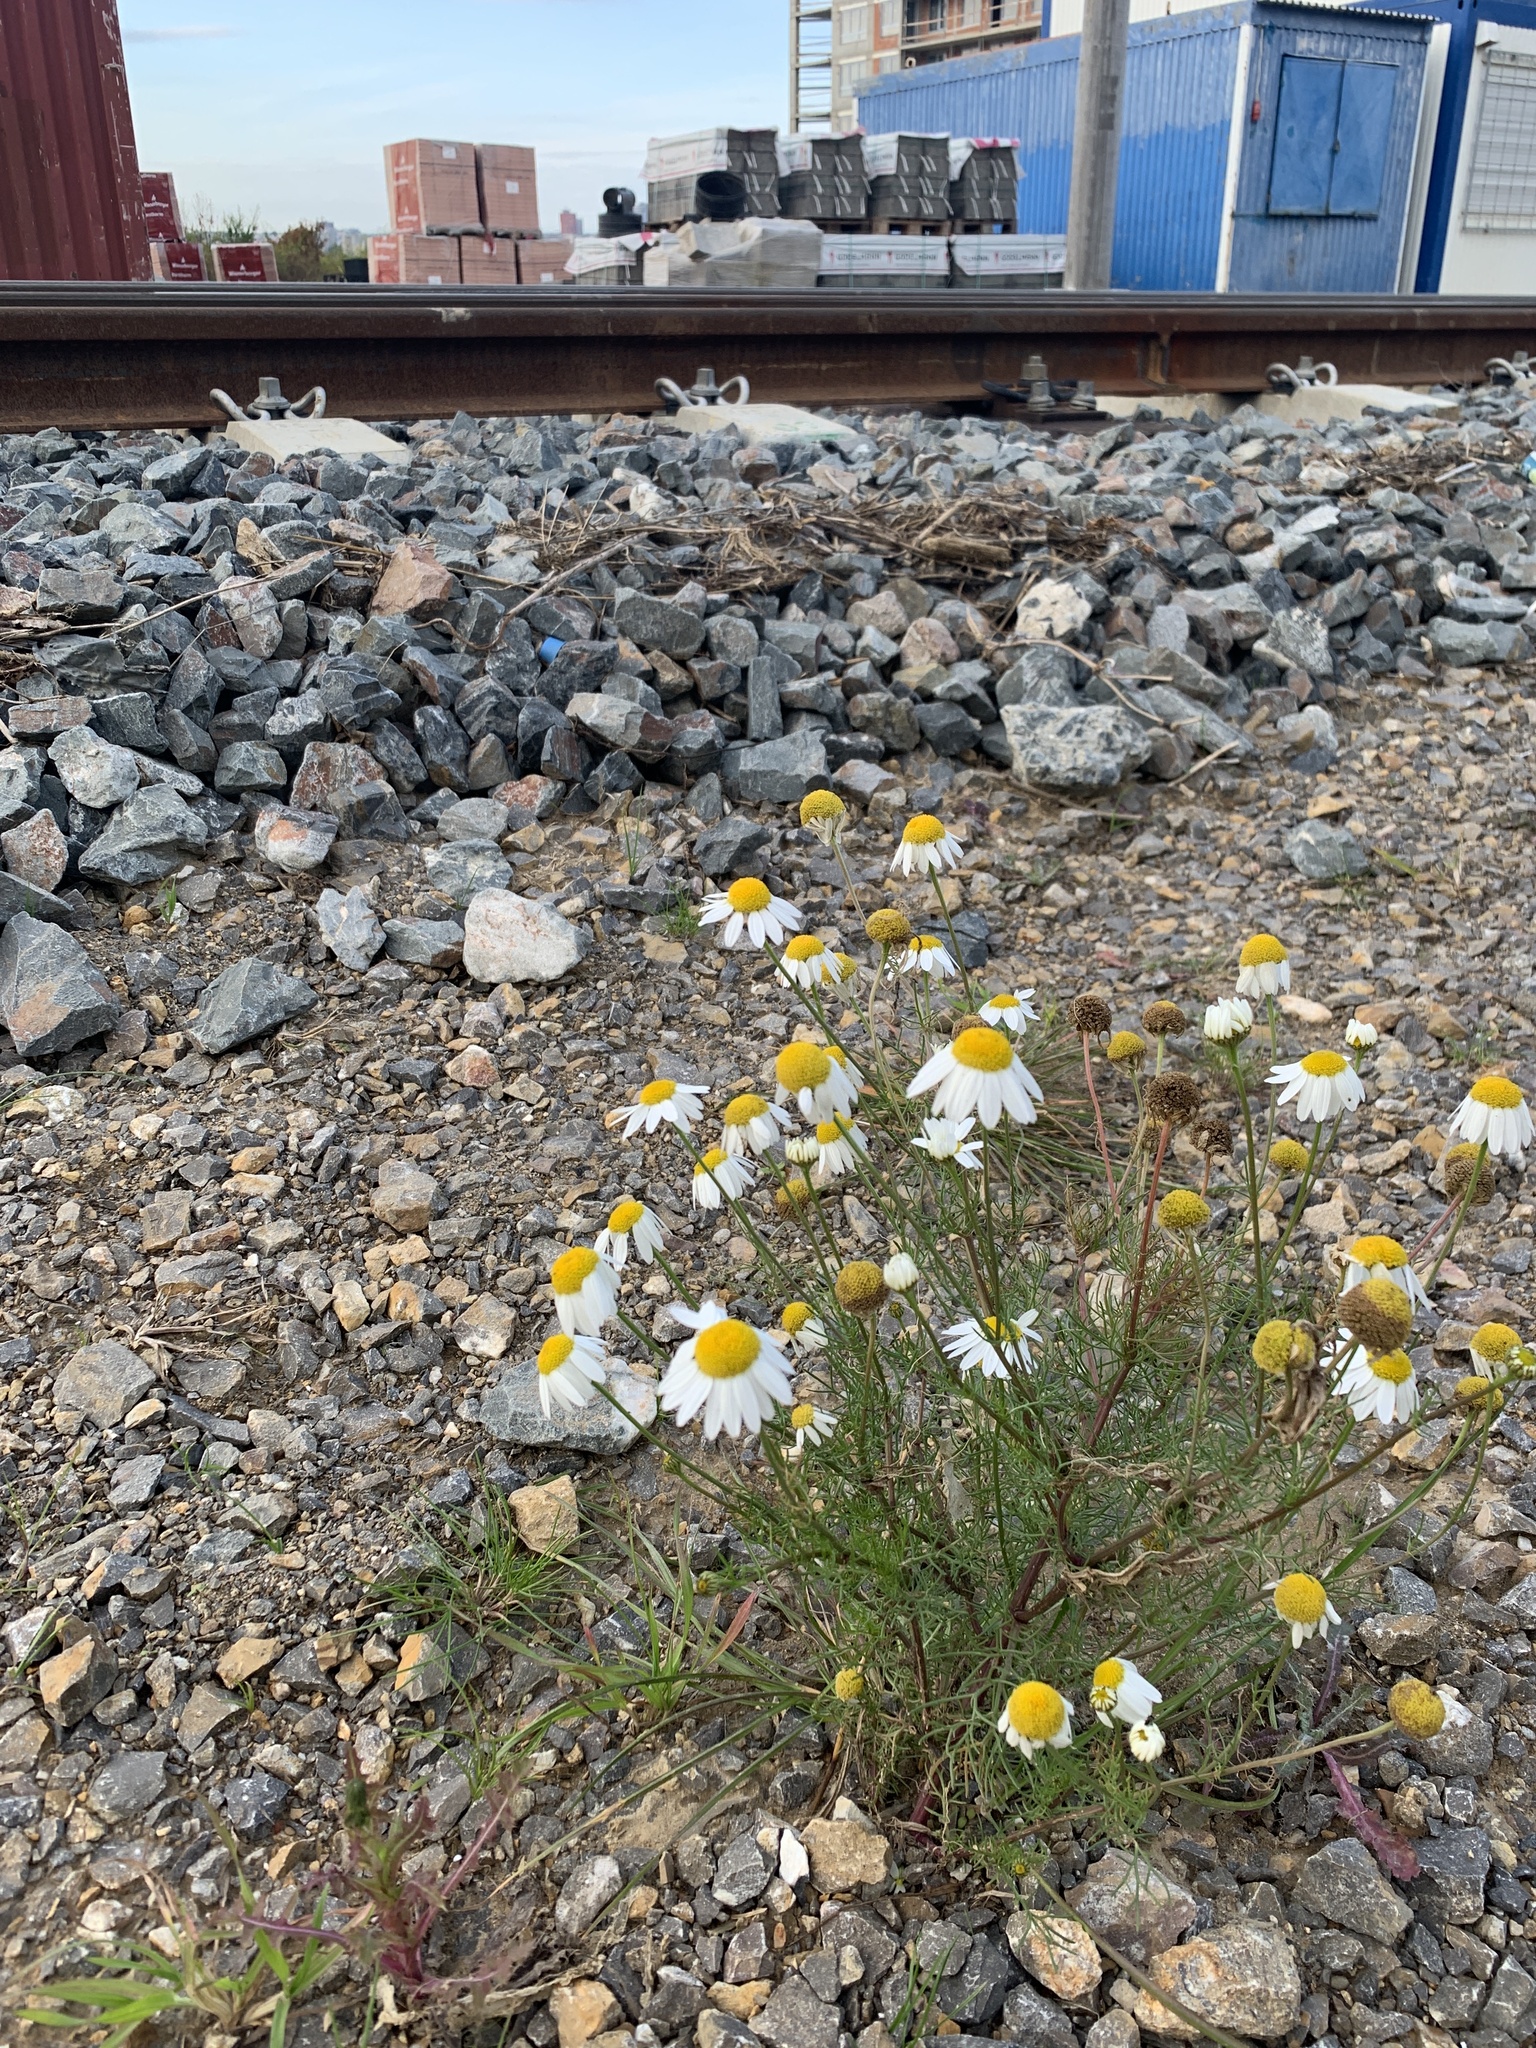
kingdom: Plantae
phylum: Tracheophyta
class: Magnoliopsida
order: Asterales
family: Asteraceae
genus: Tripleurospermum
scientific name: Tripleurospermum inodorum
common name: Scentless mayweed
